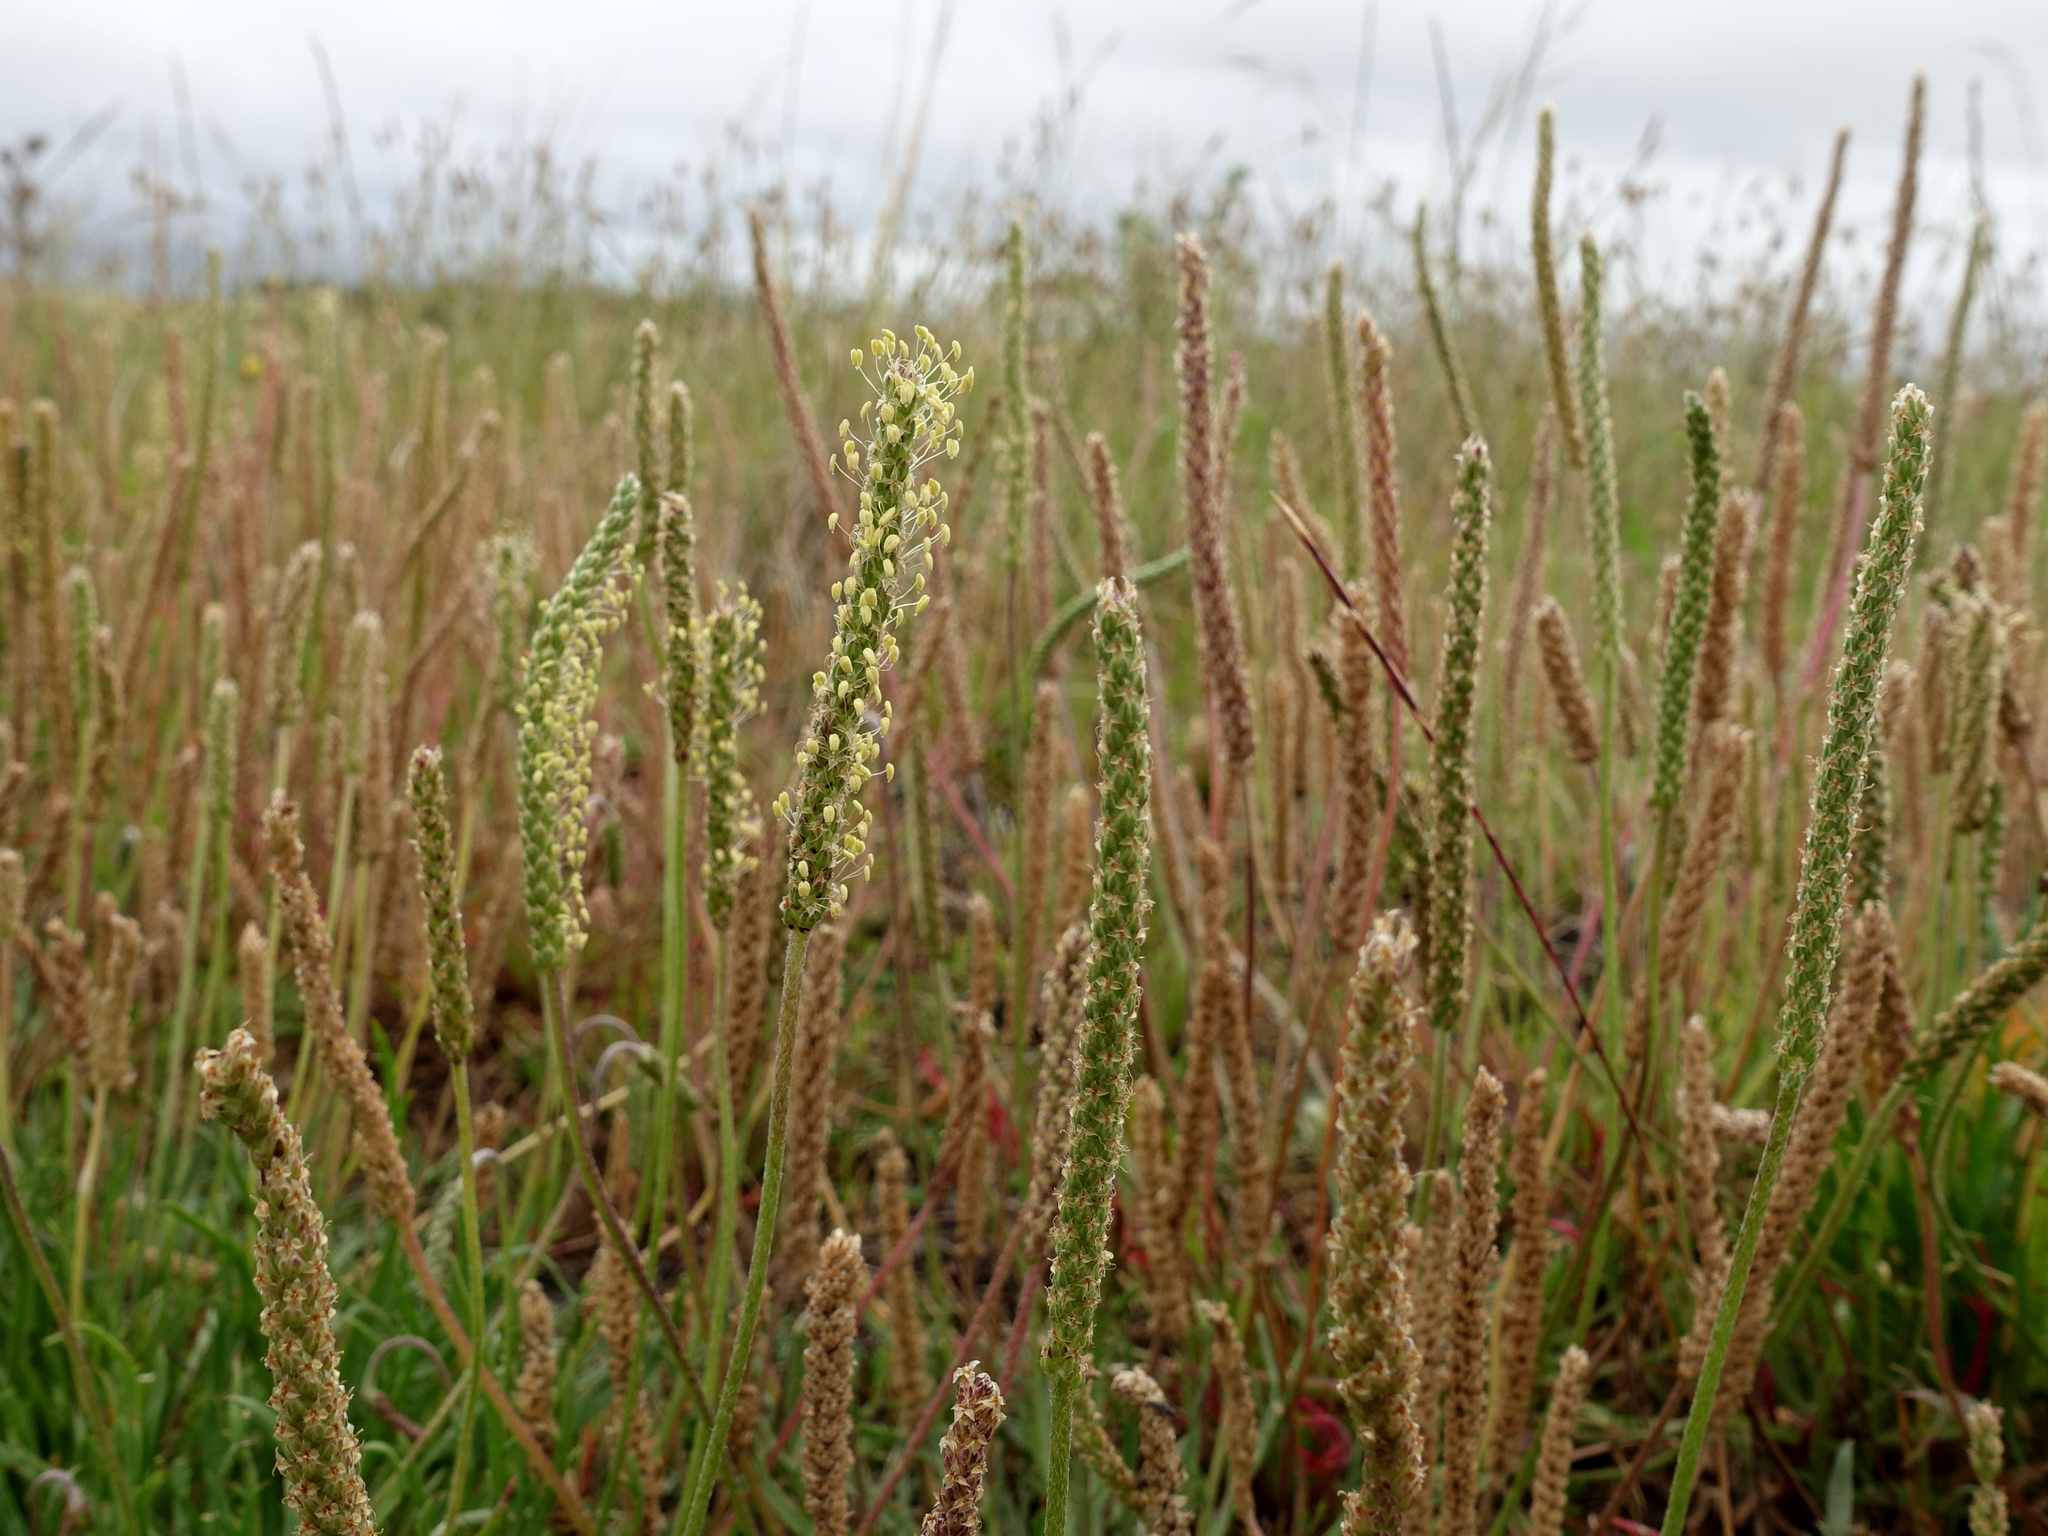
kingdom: Plantae
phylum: Tracheophyta
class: Magnoliopsida
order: Lamiales
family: Plantaginaceae
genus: Plantago
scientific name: Plantago coronopus
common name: Buck's-horn plantain
